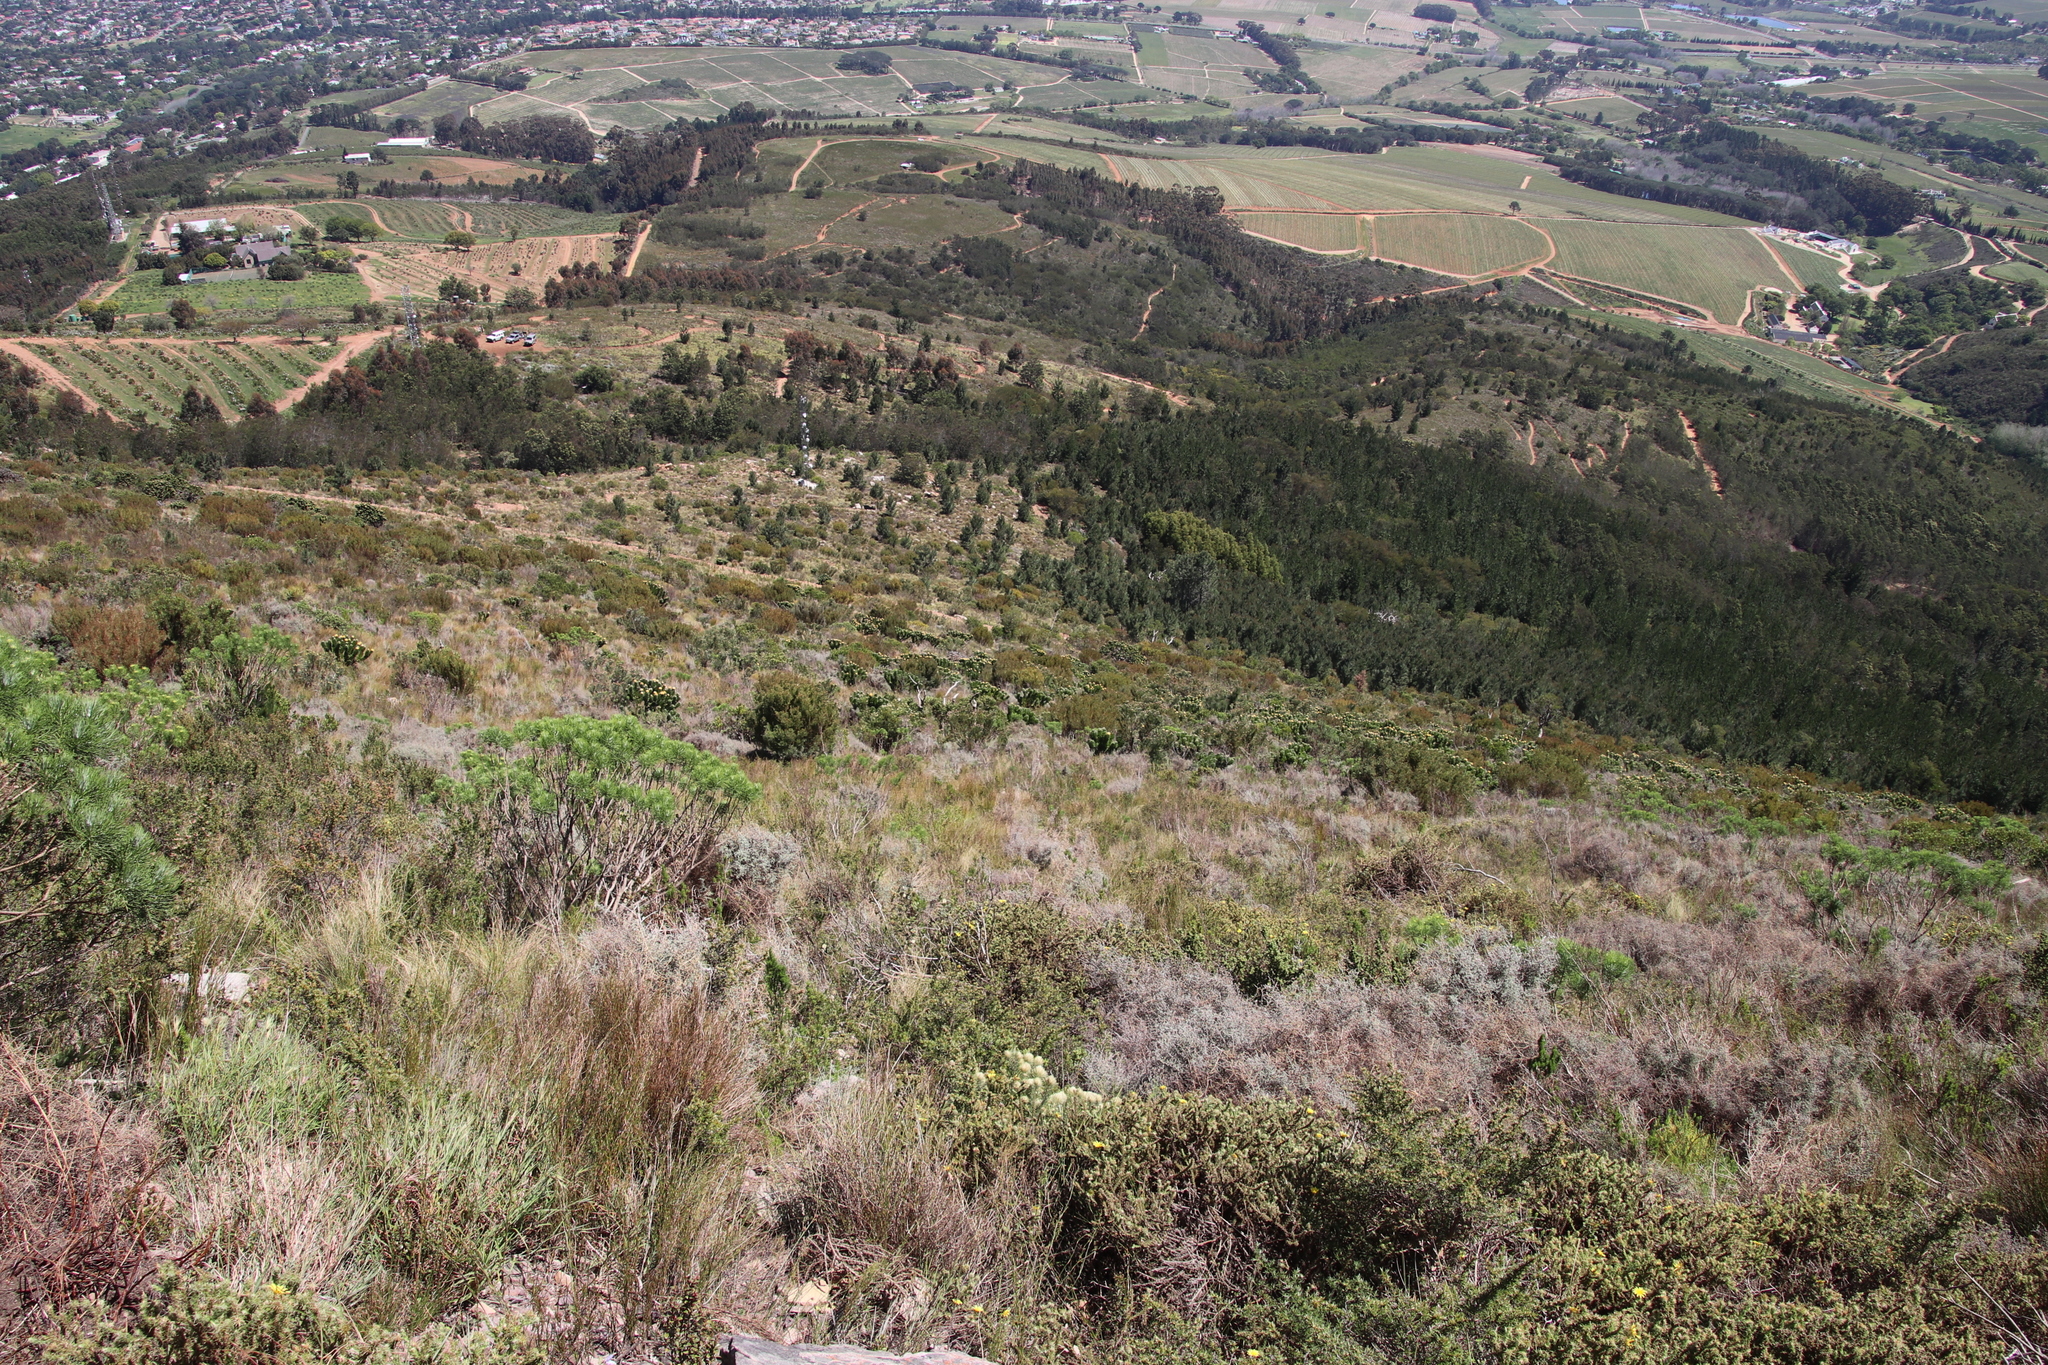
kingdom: Plantae
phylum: Tracheophyta
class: Magnoliopsida
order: Proteales
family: Proteaceae
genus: Leucospermum
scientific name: Leucospermum conocarpodendron
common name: Tree pincushion
